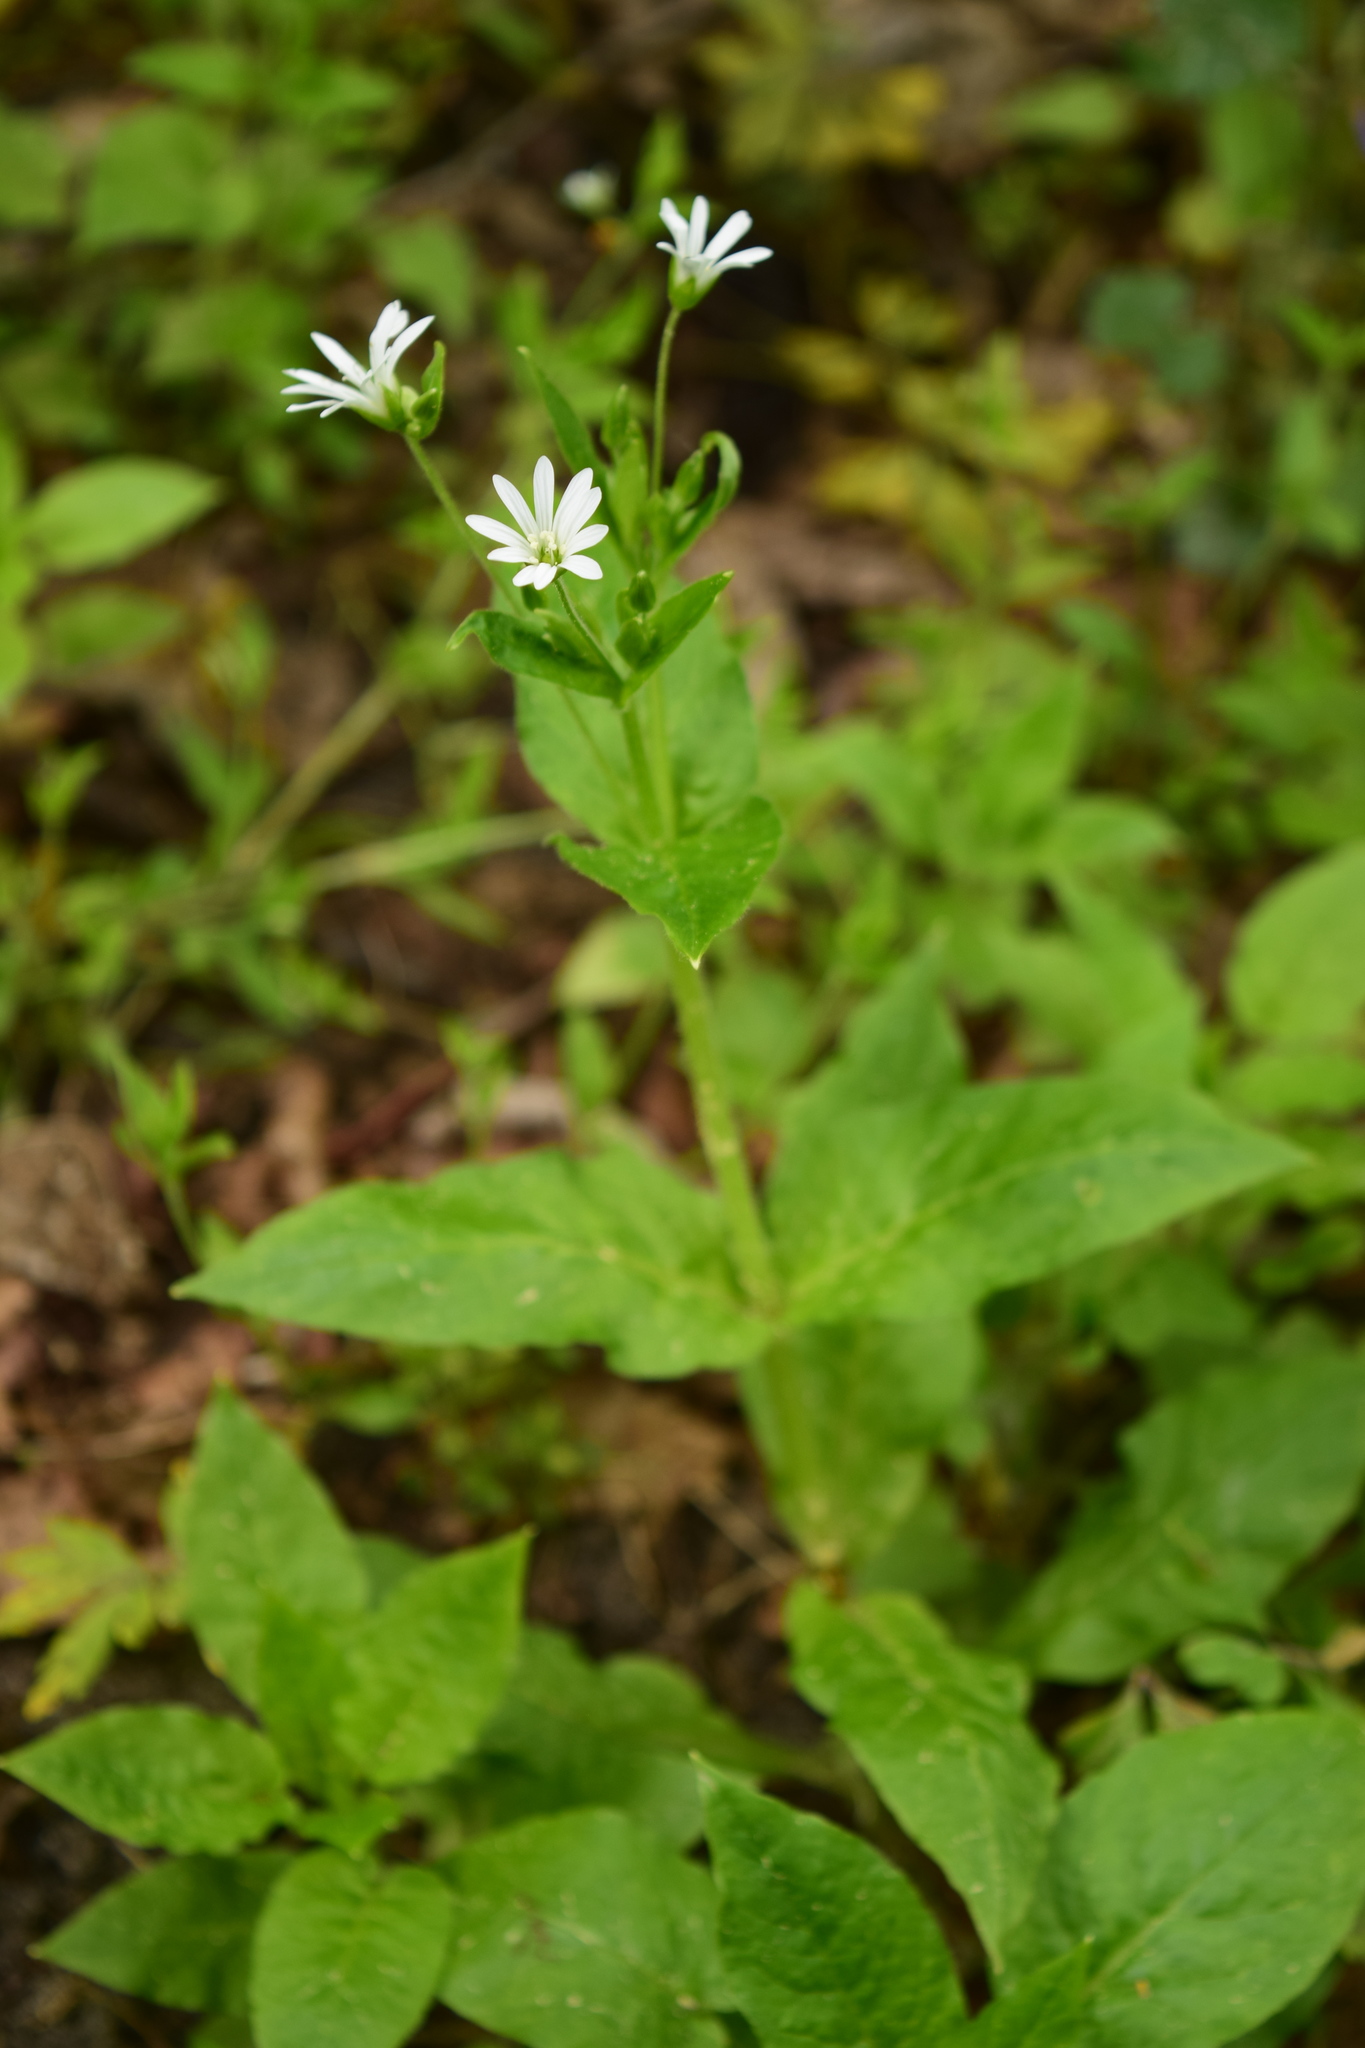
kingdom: Plantae
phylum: Tracheophyta
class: Magnoliopsida
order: Caryophyllales
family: Caryophyllaceae
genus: Stellaria
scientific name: Stellaria nemorum
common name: Wood stitchwort
